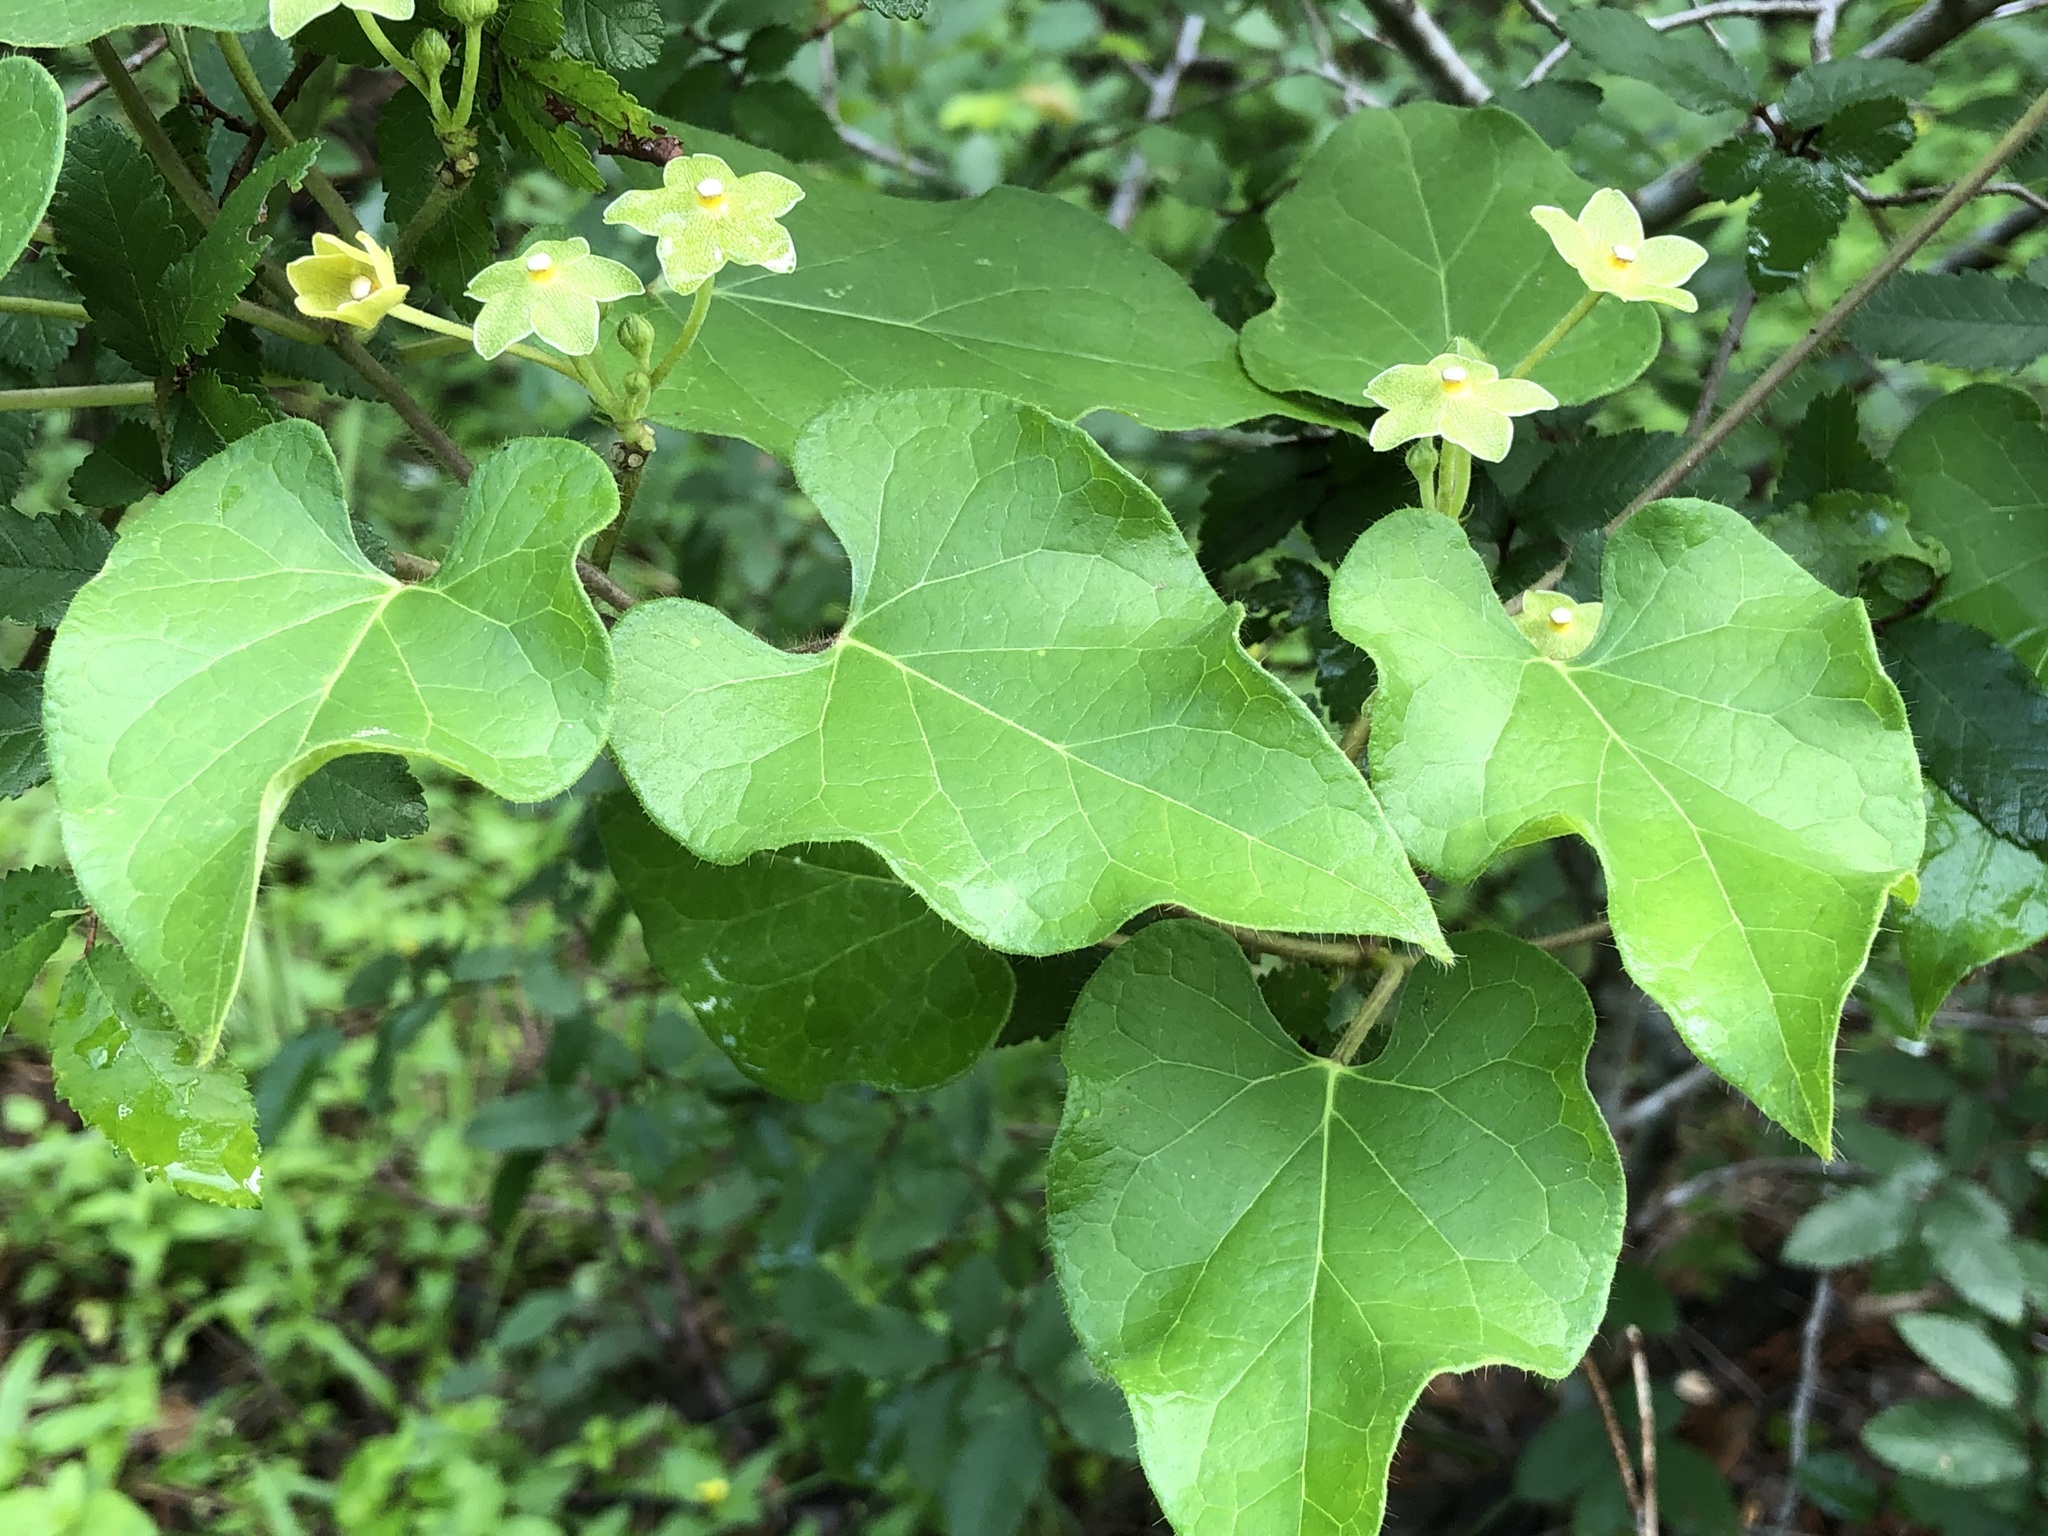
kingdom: Plantae
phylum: Tracheophyta
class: Magnoliopsida
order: Gentianales
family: Apocynaceae
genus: Dictyanthus
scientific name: Dictyanthus reticulatus
